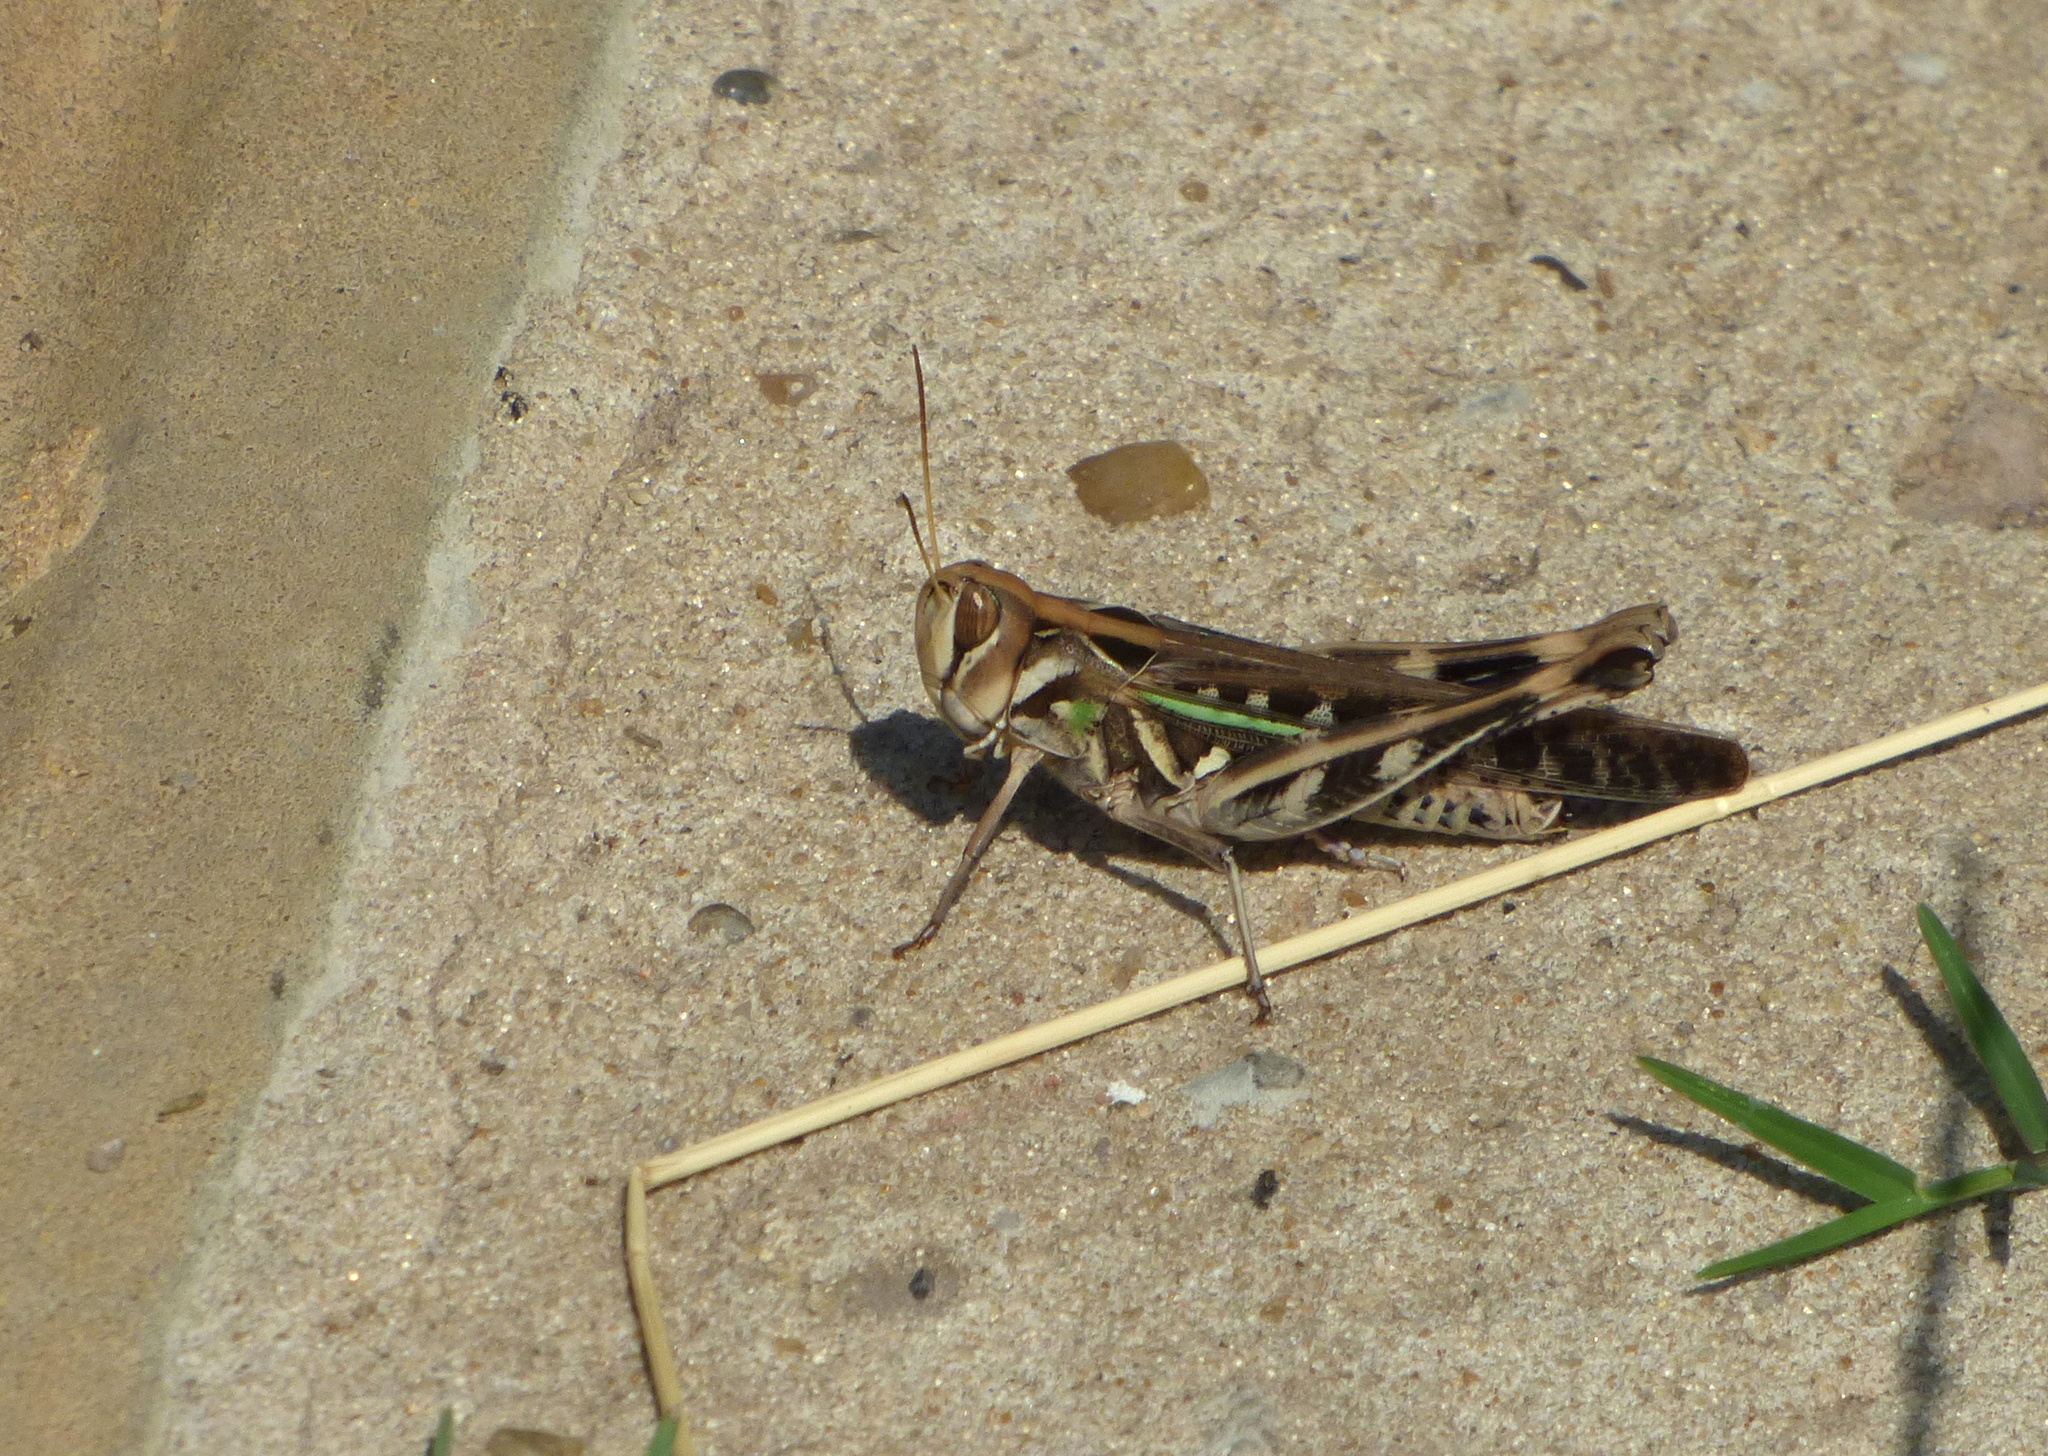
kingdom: Animalia
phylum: Arthropoda
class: Insecta
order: Orthoptera
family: Acrididae
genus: Rhammatocerus
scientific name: Rhammatocerus pictus
